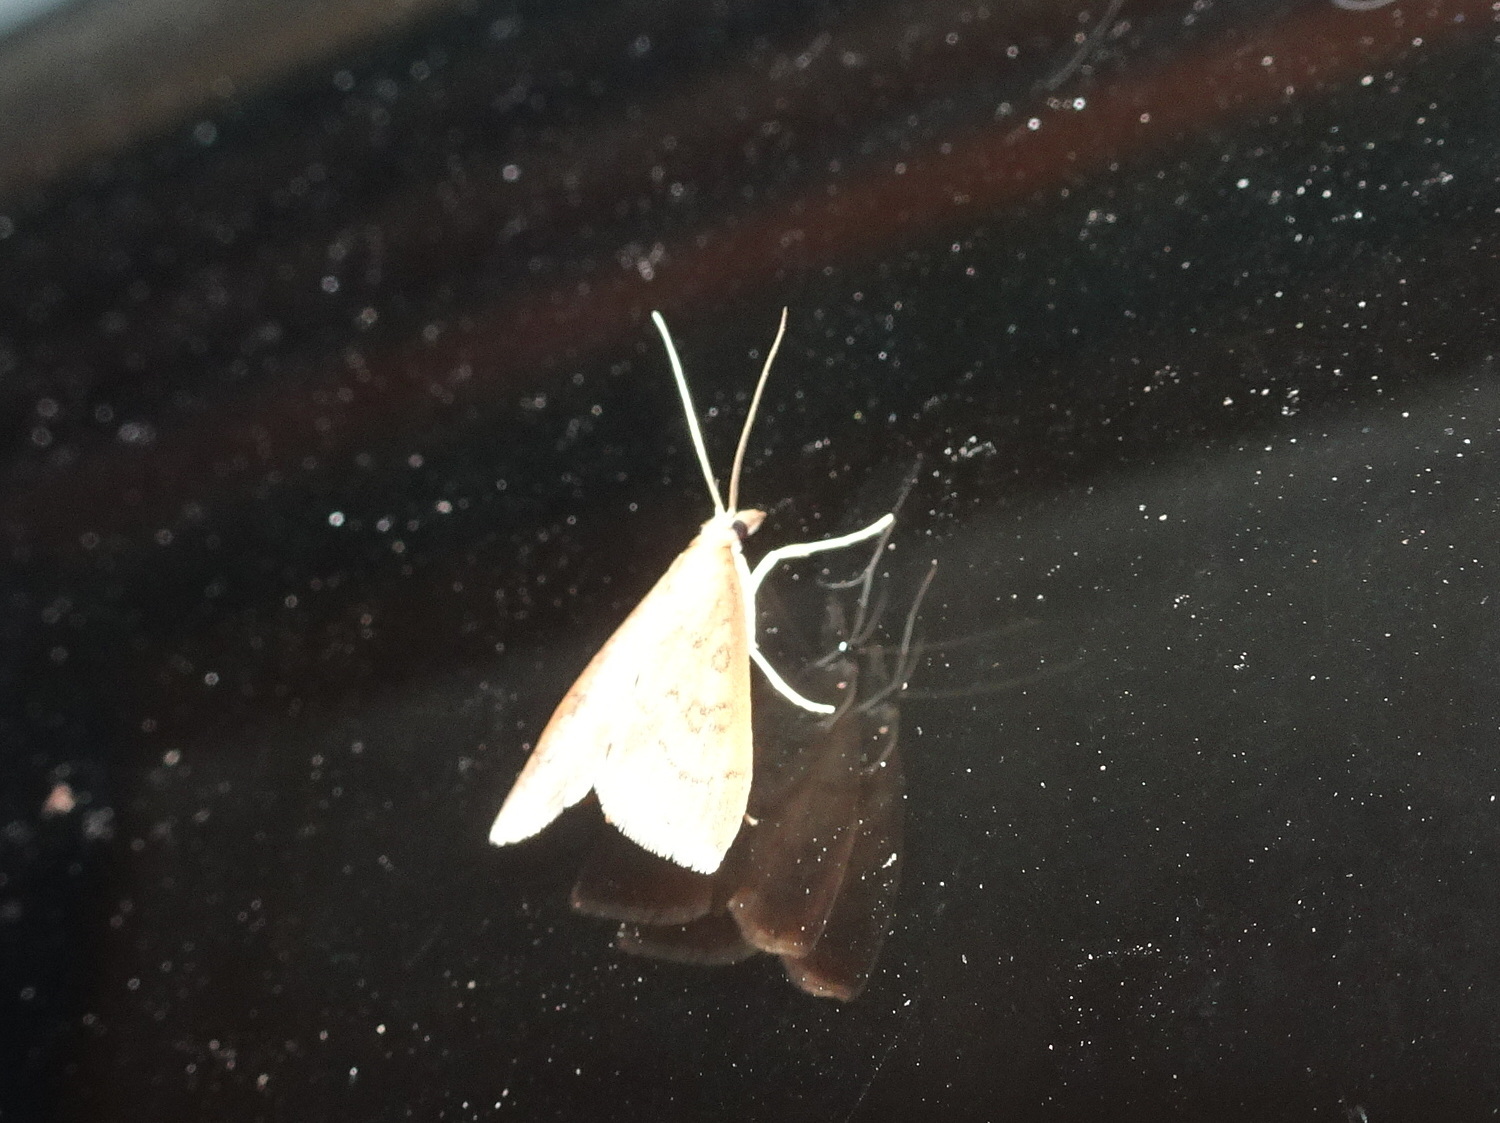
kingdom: Animalia
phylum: Arthropoda
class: Insecta
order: Lepidoptera
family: Crambidae
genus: Udea
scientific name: Udea rubigalis
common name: Celery leaftier moth
